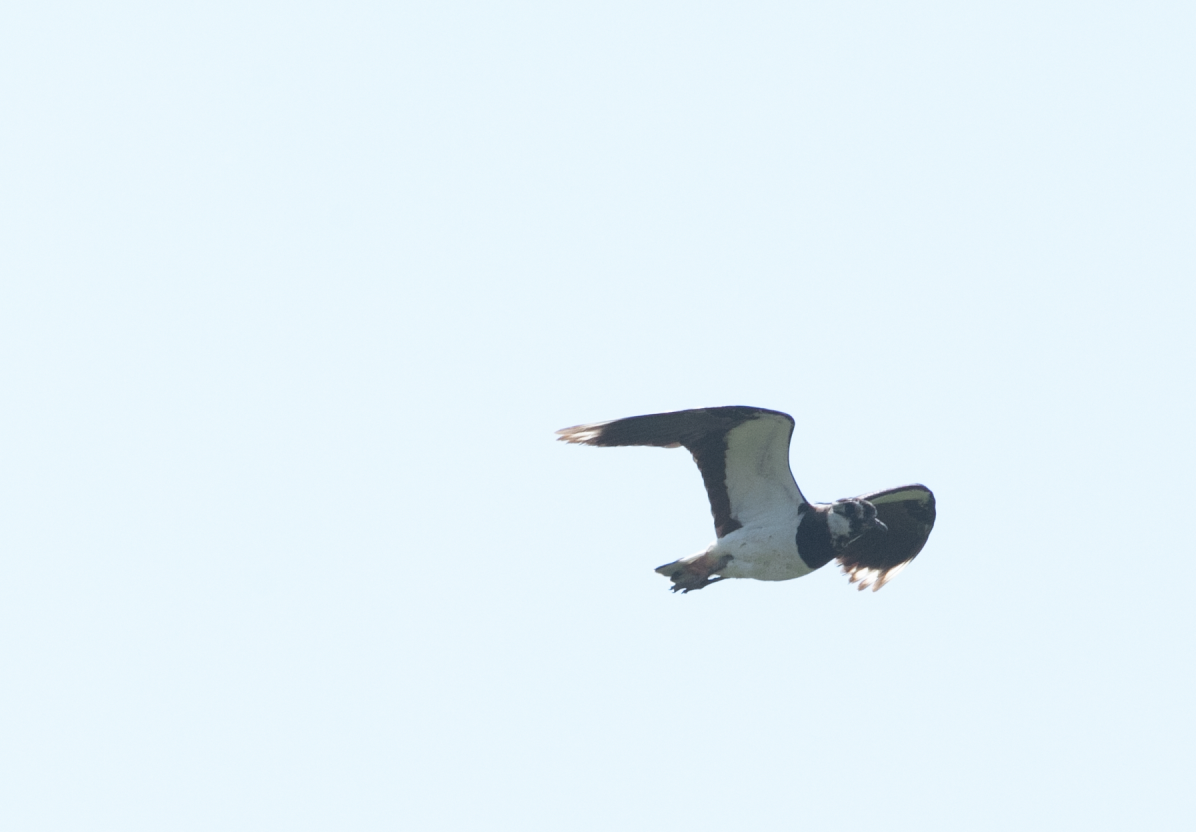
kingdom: Animalia
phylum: Chordata
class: Aves
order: Charadriiformes
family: Charadriidae
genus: Vanellus
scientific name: Vanellus vanellus
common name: Northern lapwing
